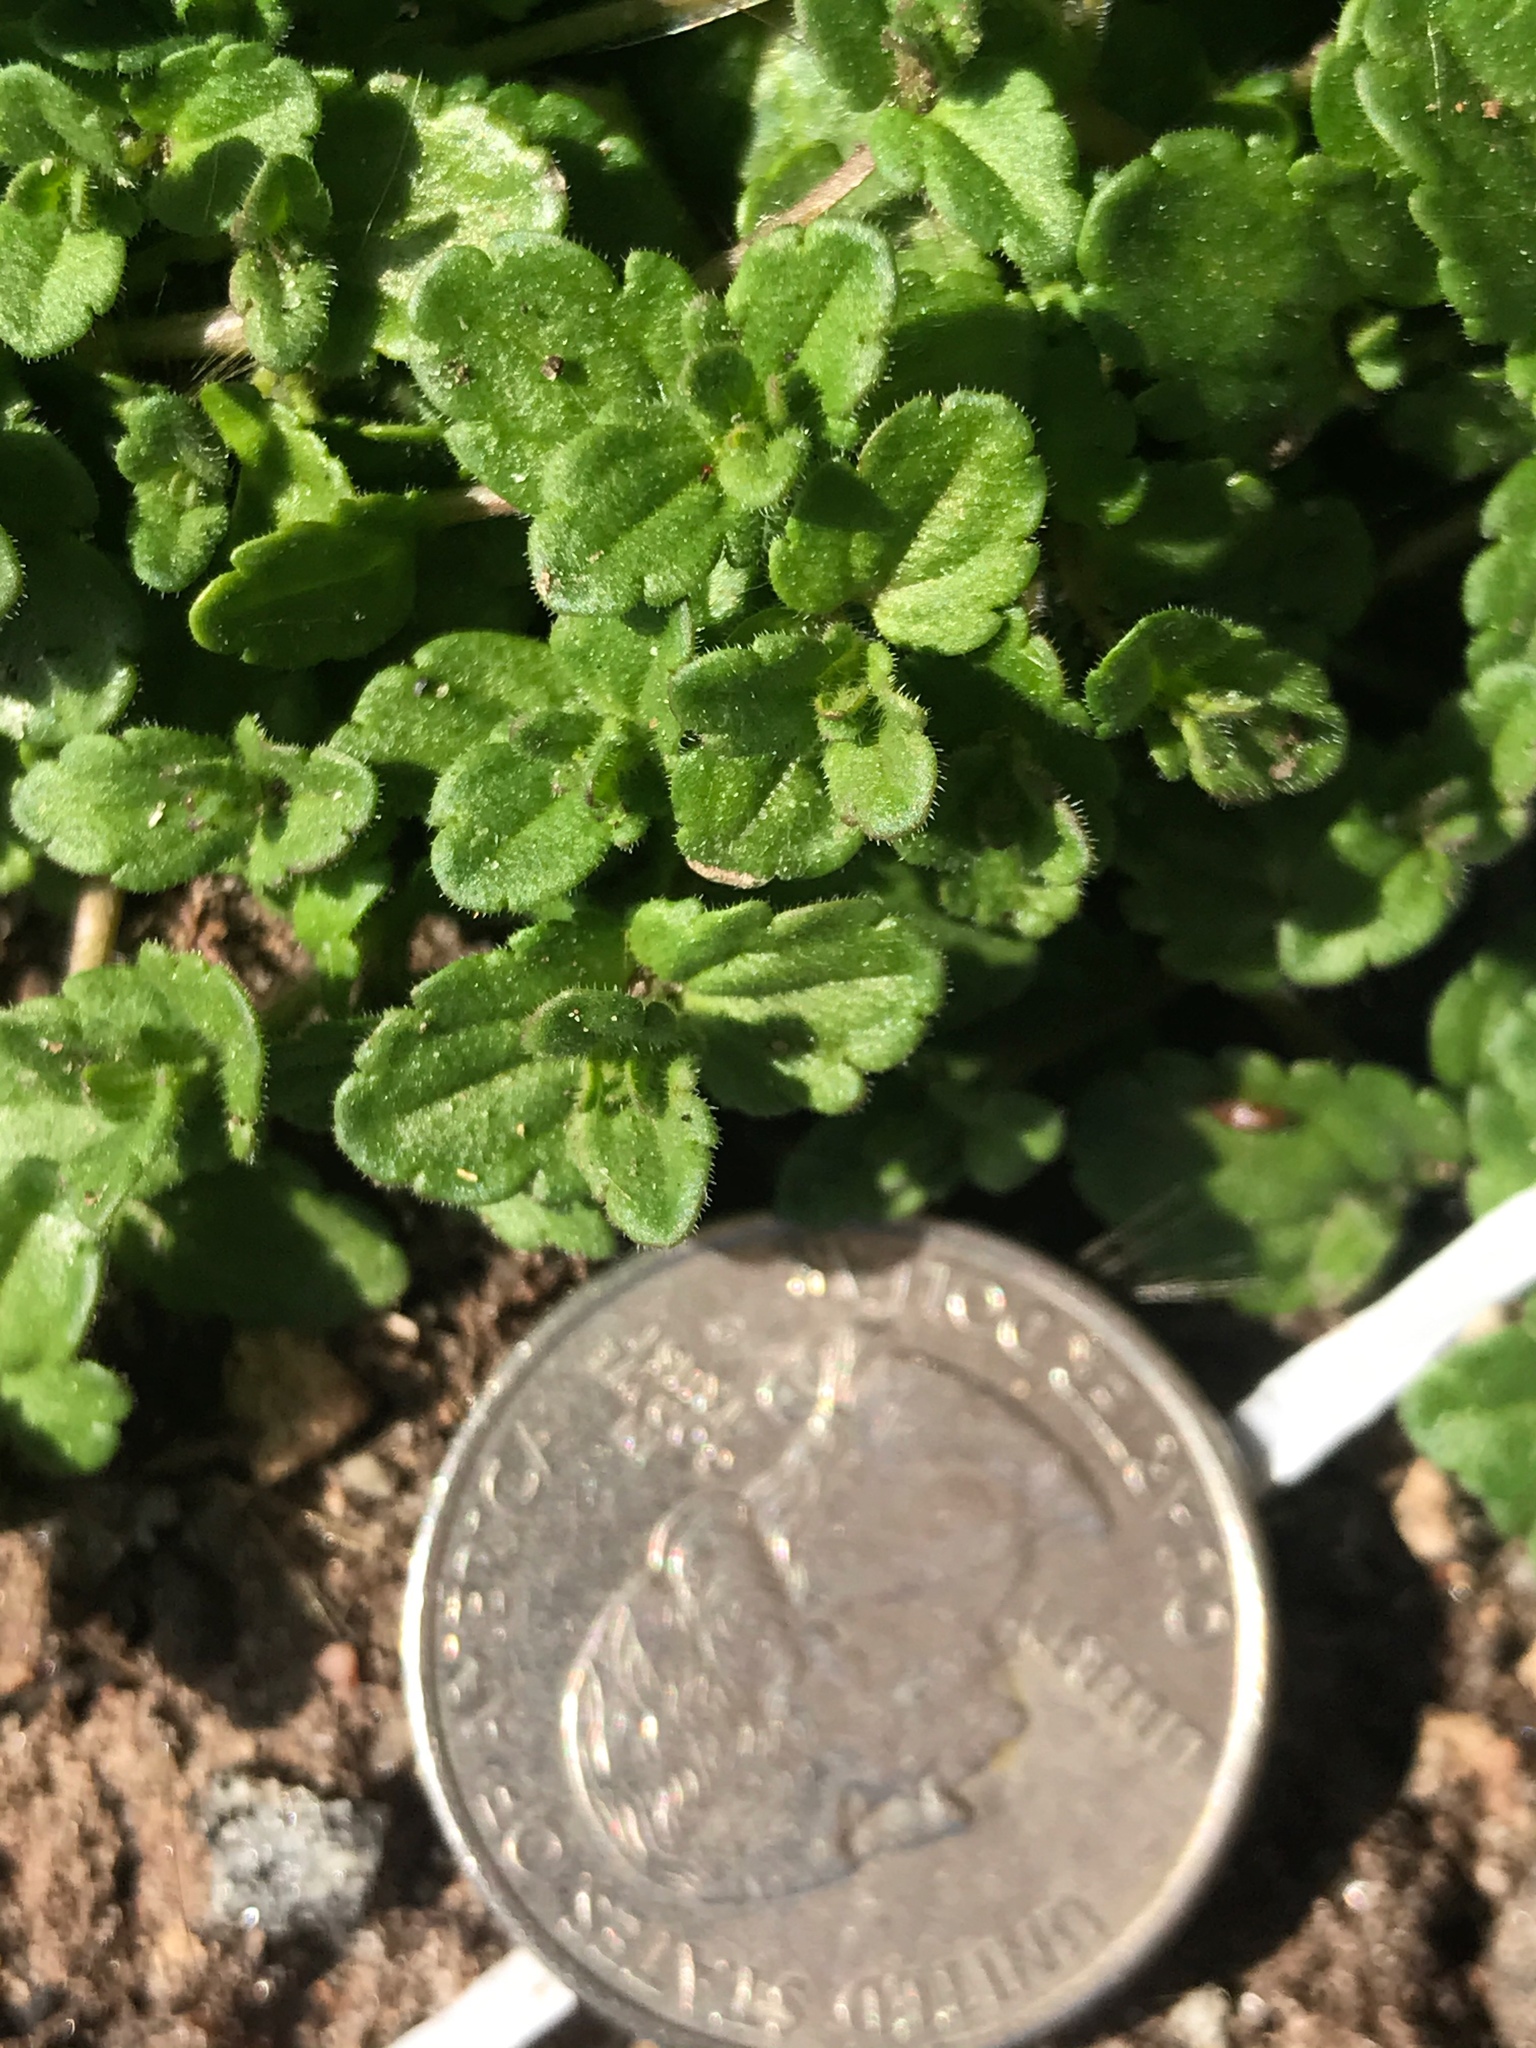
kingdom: Plantae
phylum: Tracheophyta
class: Magnoliopsida
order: Lamiales
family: Plantaginaceae
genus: Veronica
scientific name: Veronica arvensis
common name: Corn speedwell
